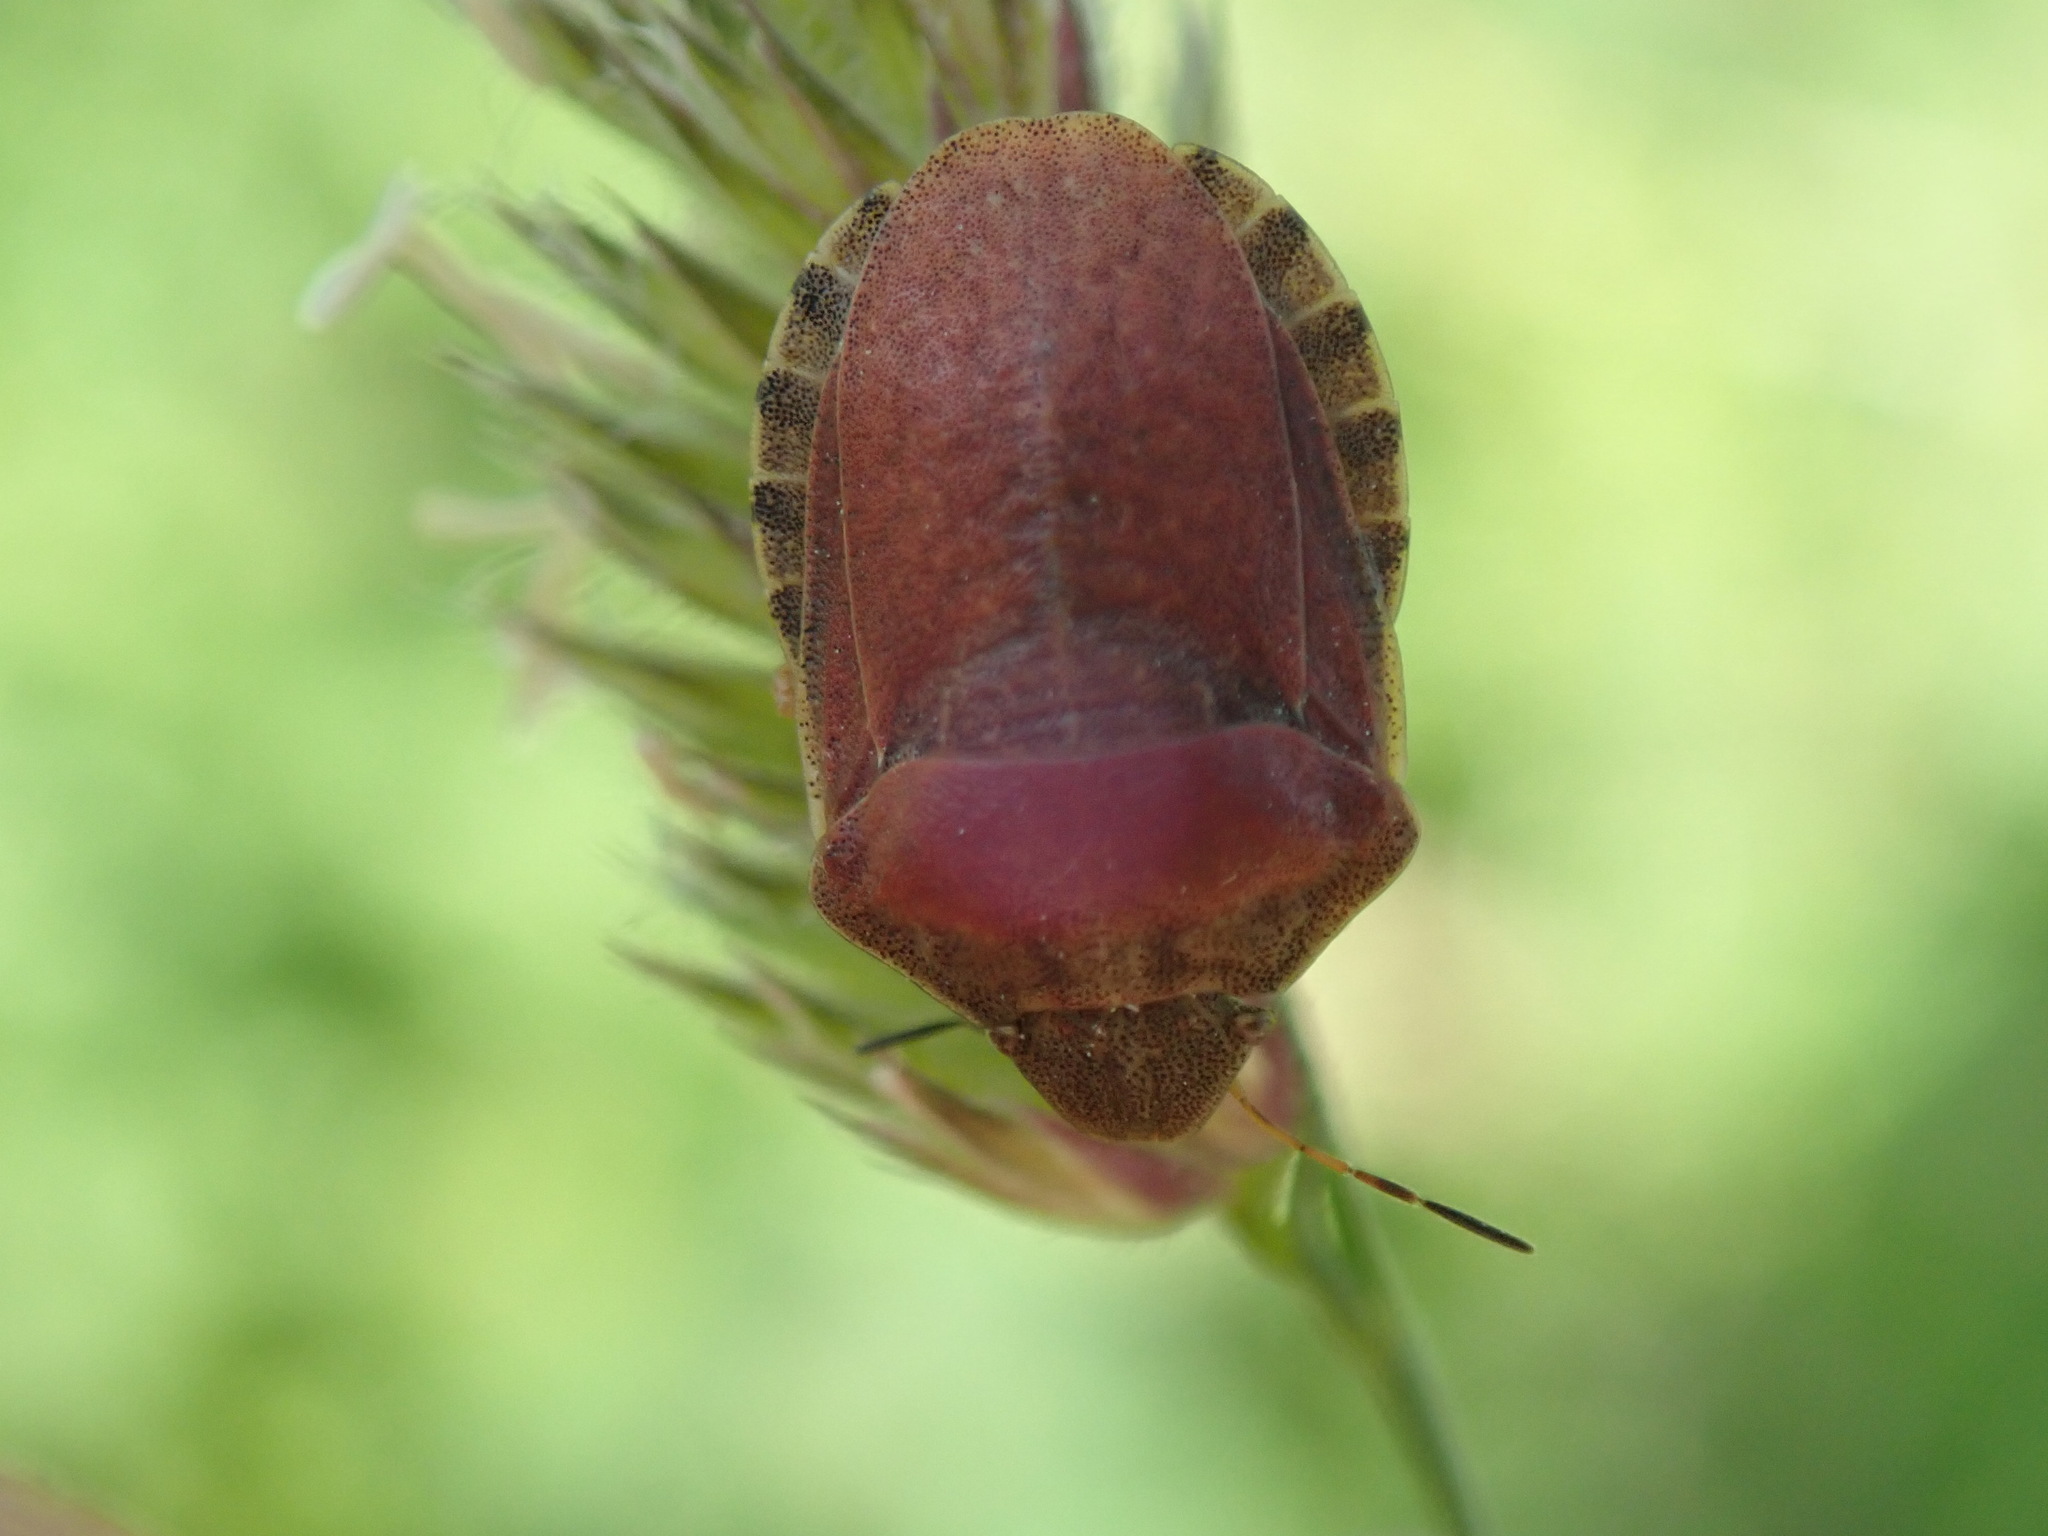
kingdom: Animalia
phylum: Arthropoda
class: Insecta
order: Hemiptera
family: Scutelleridae
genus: Eurygaster
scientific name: Eurygaster testudinaria
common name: Tortoise bug
